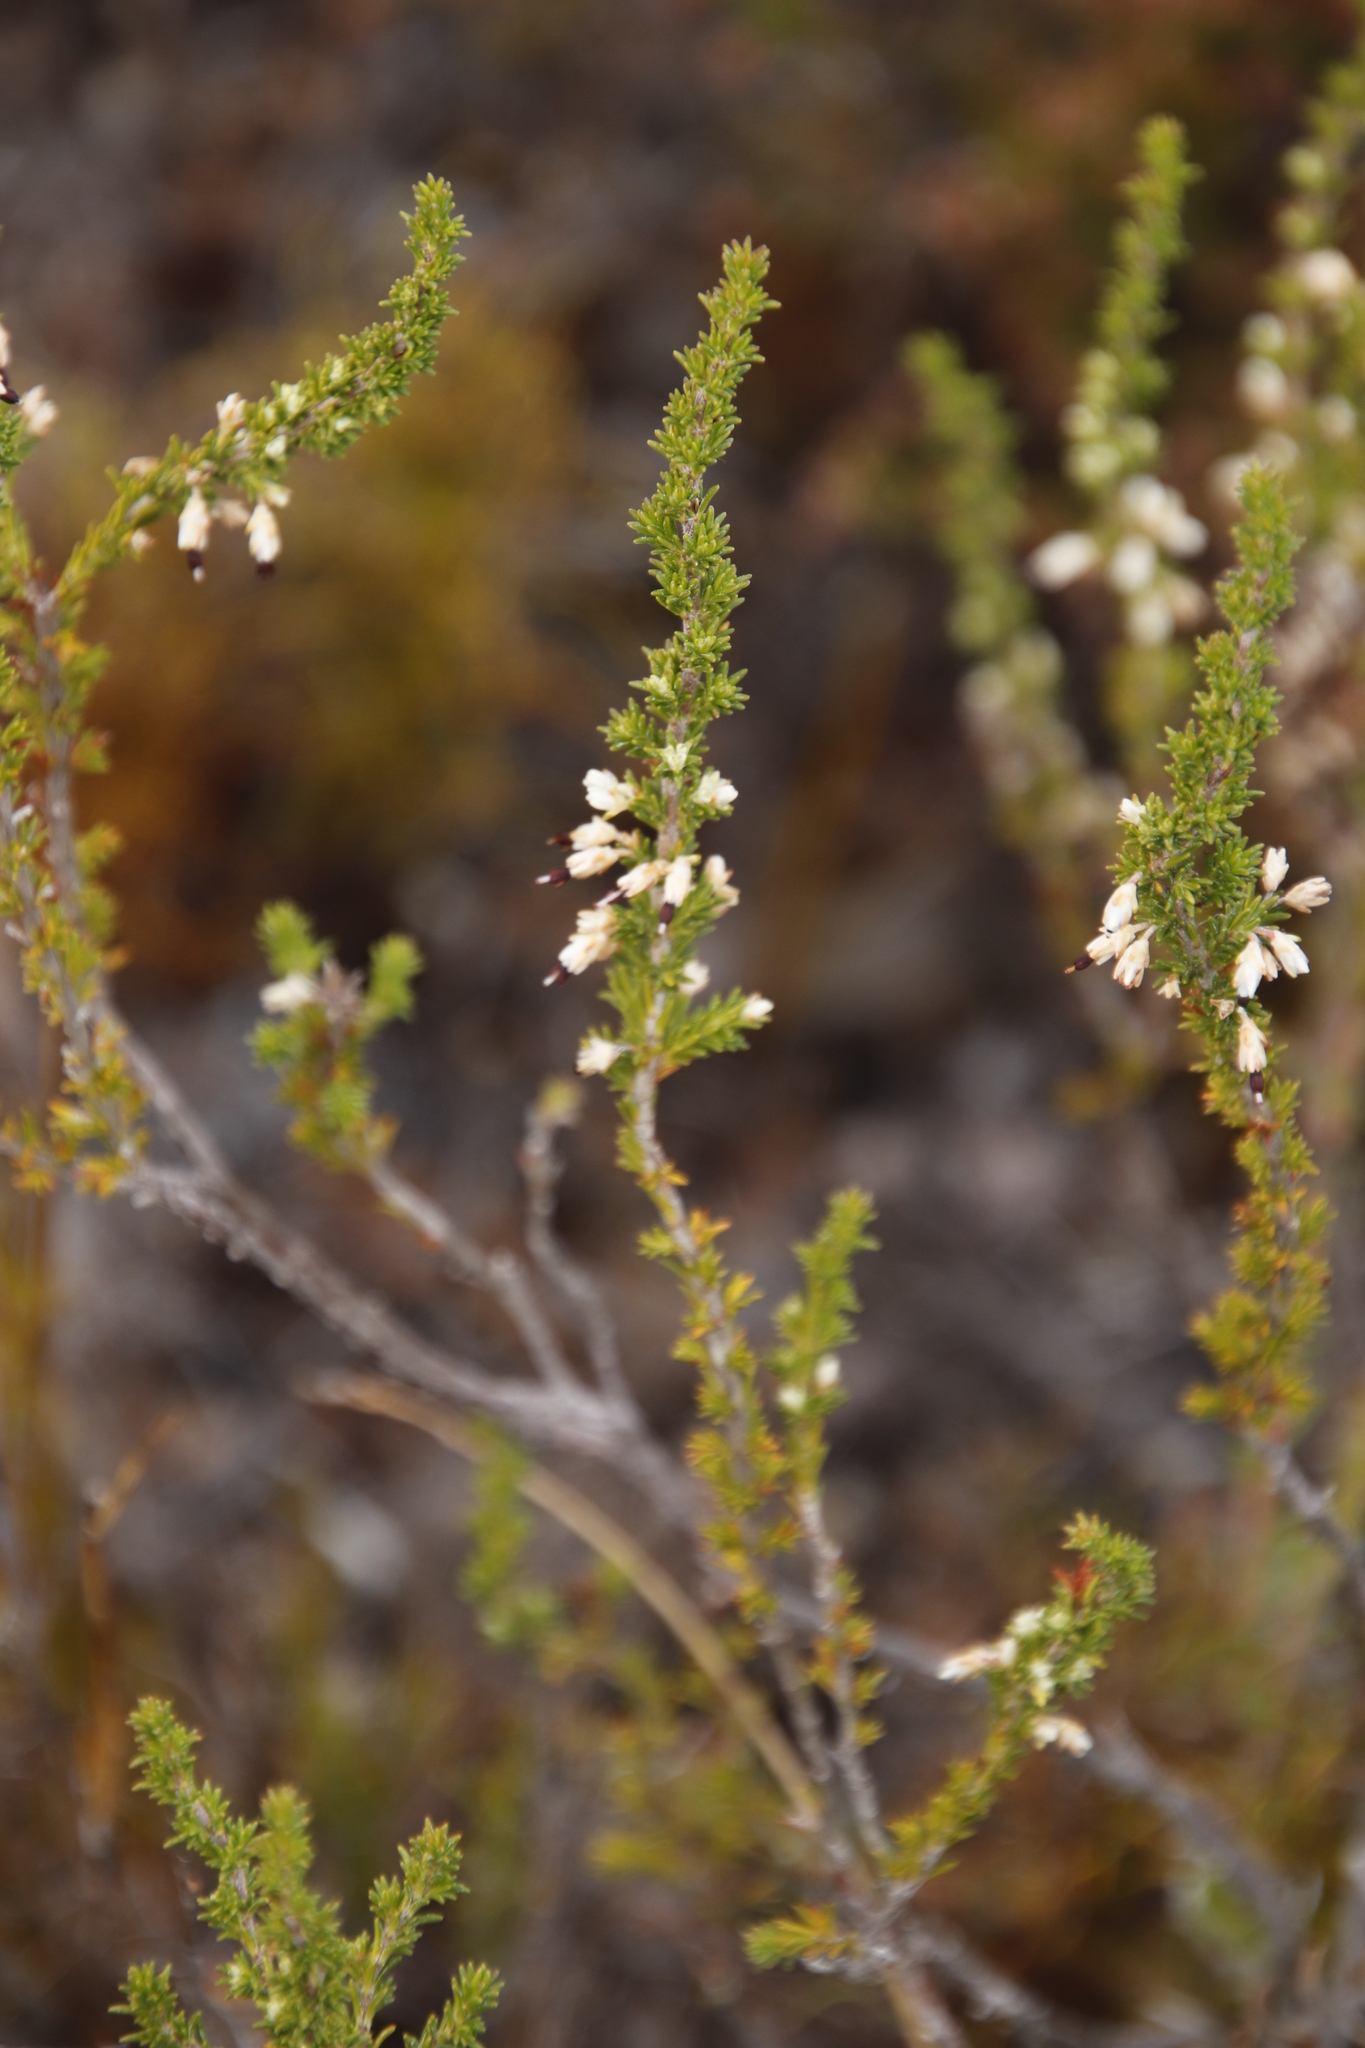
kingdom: Plantae
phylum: Tracheophyta
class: Magnoliopsida
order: Ericales
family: Ericaceae
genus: Erica
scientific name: Erica imbricata
